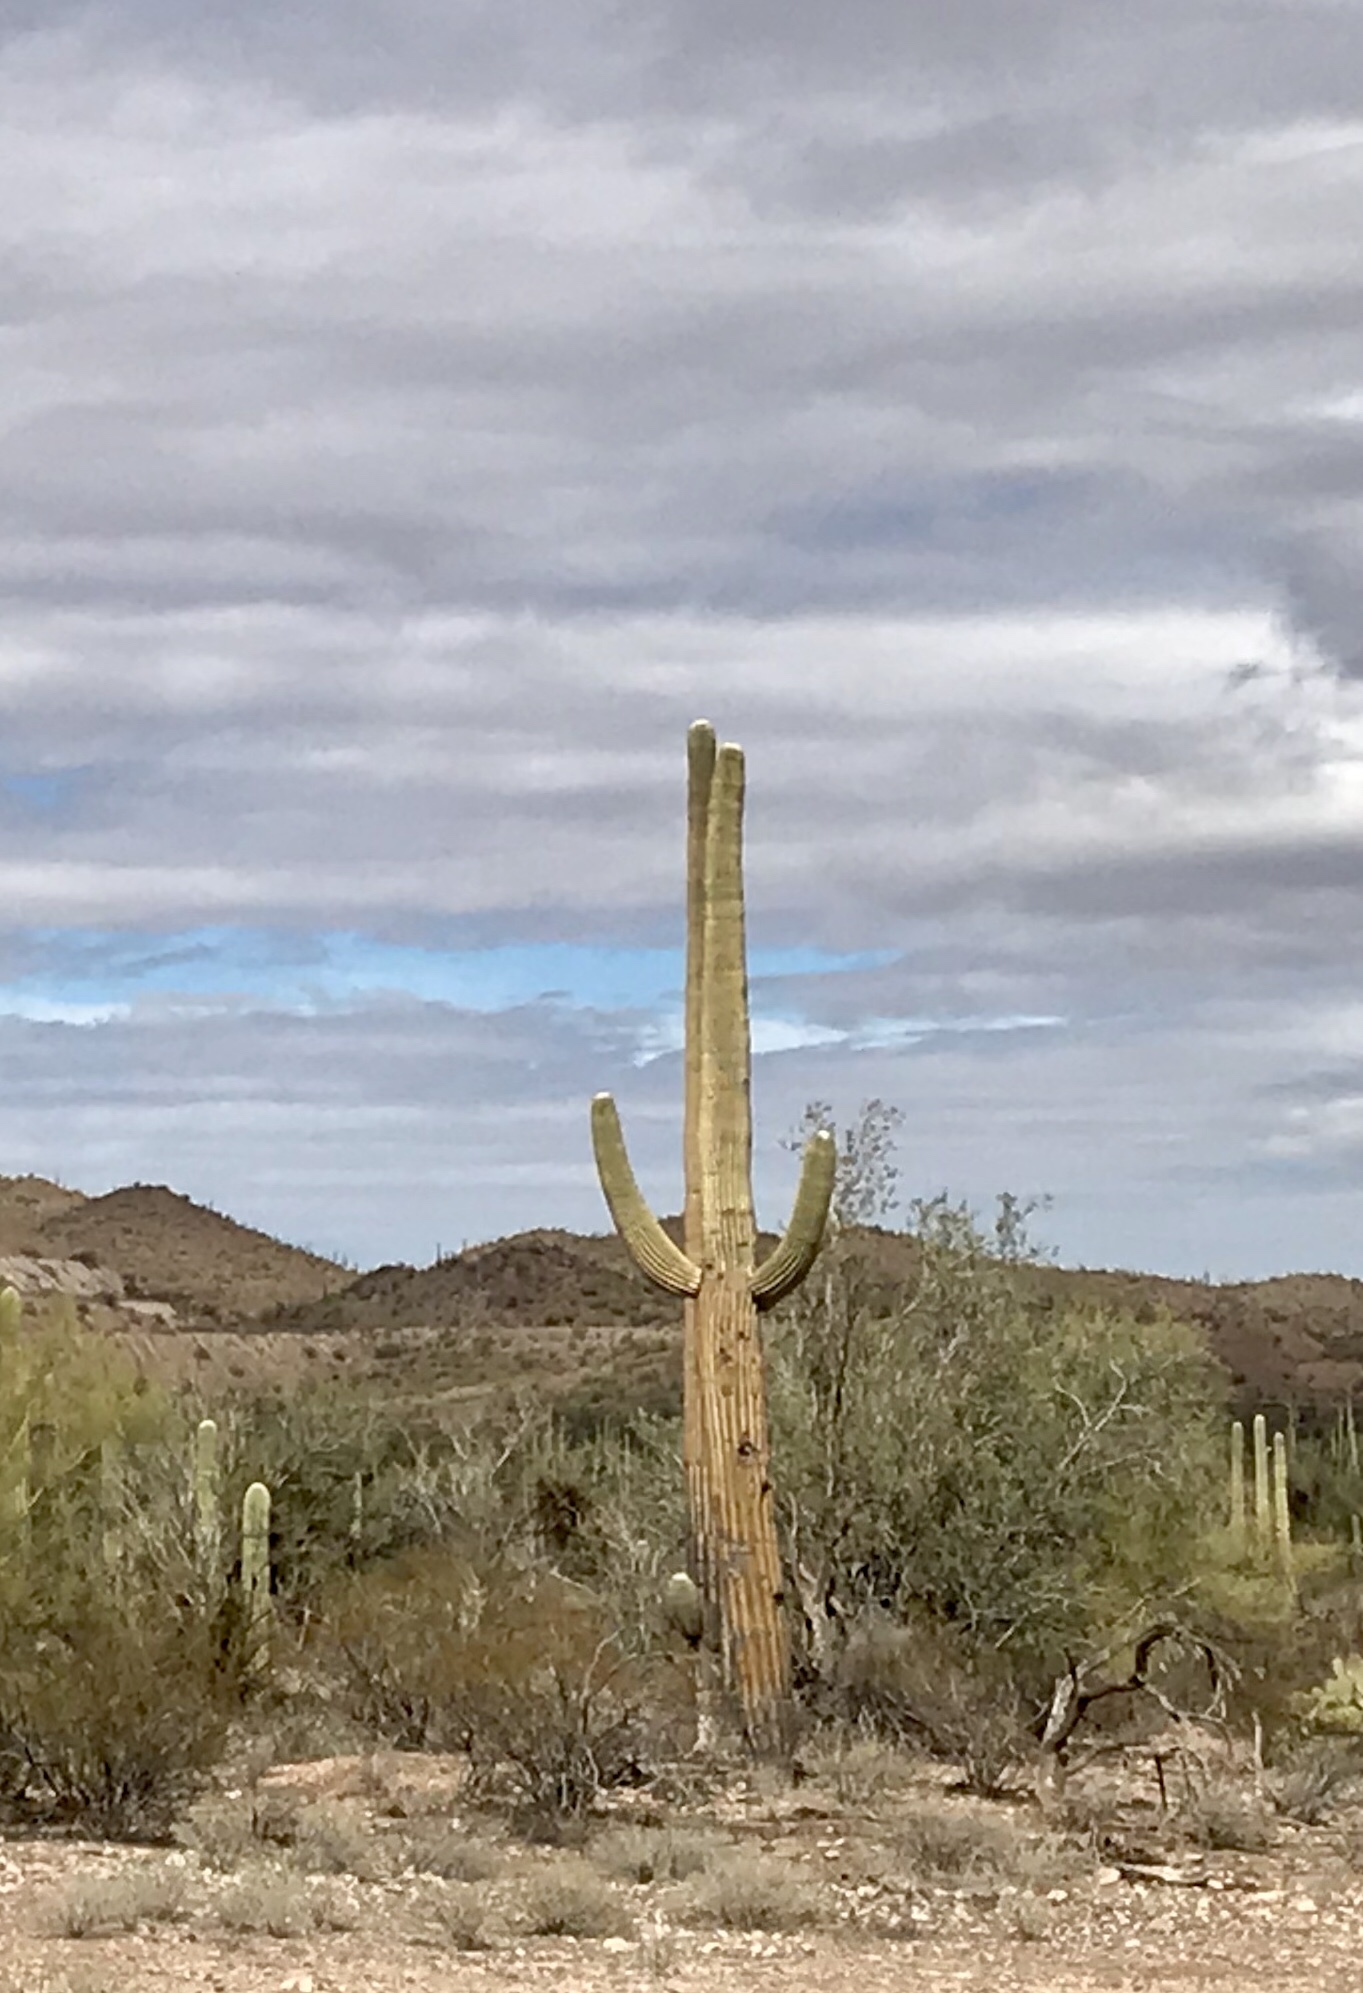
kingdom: Plantae
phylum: Tracheophyta
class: Magnoliopsida
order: Caryophyllales
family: Cactaceae
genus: Carnegiea
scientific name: Carnegiea gigantea
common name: Saguaro
